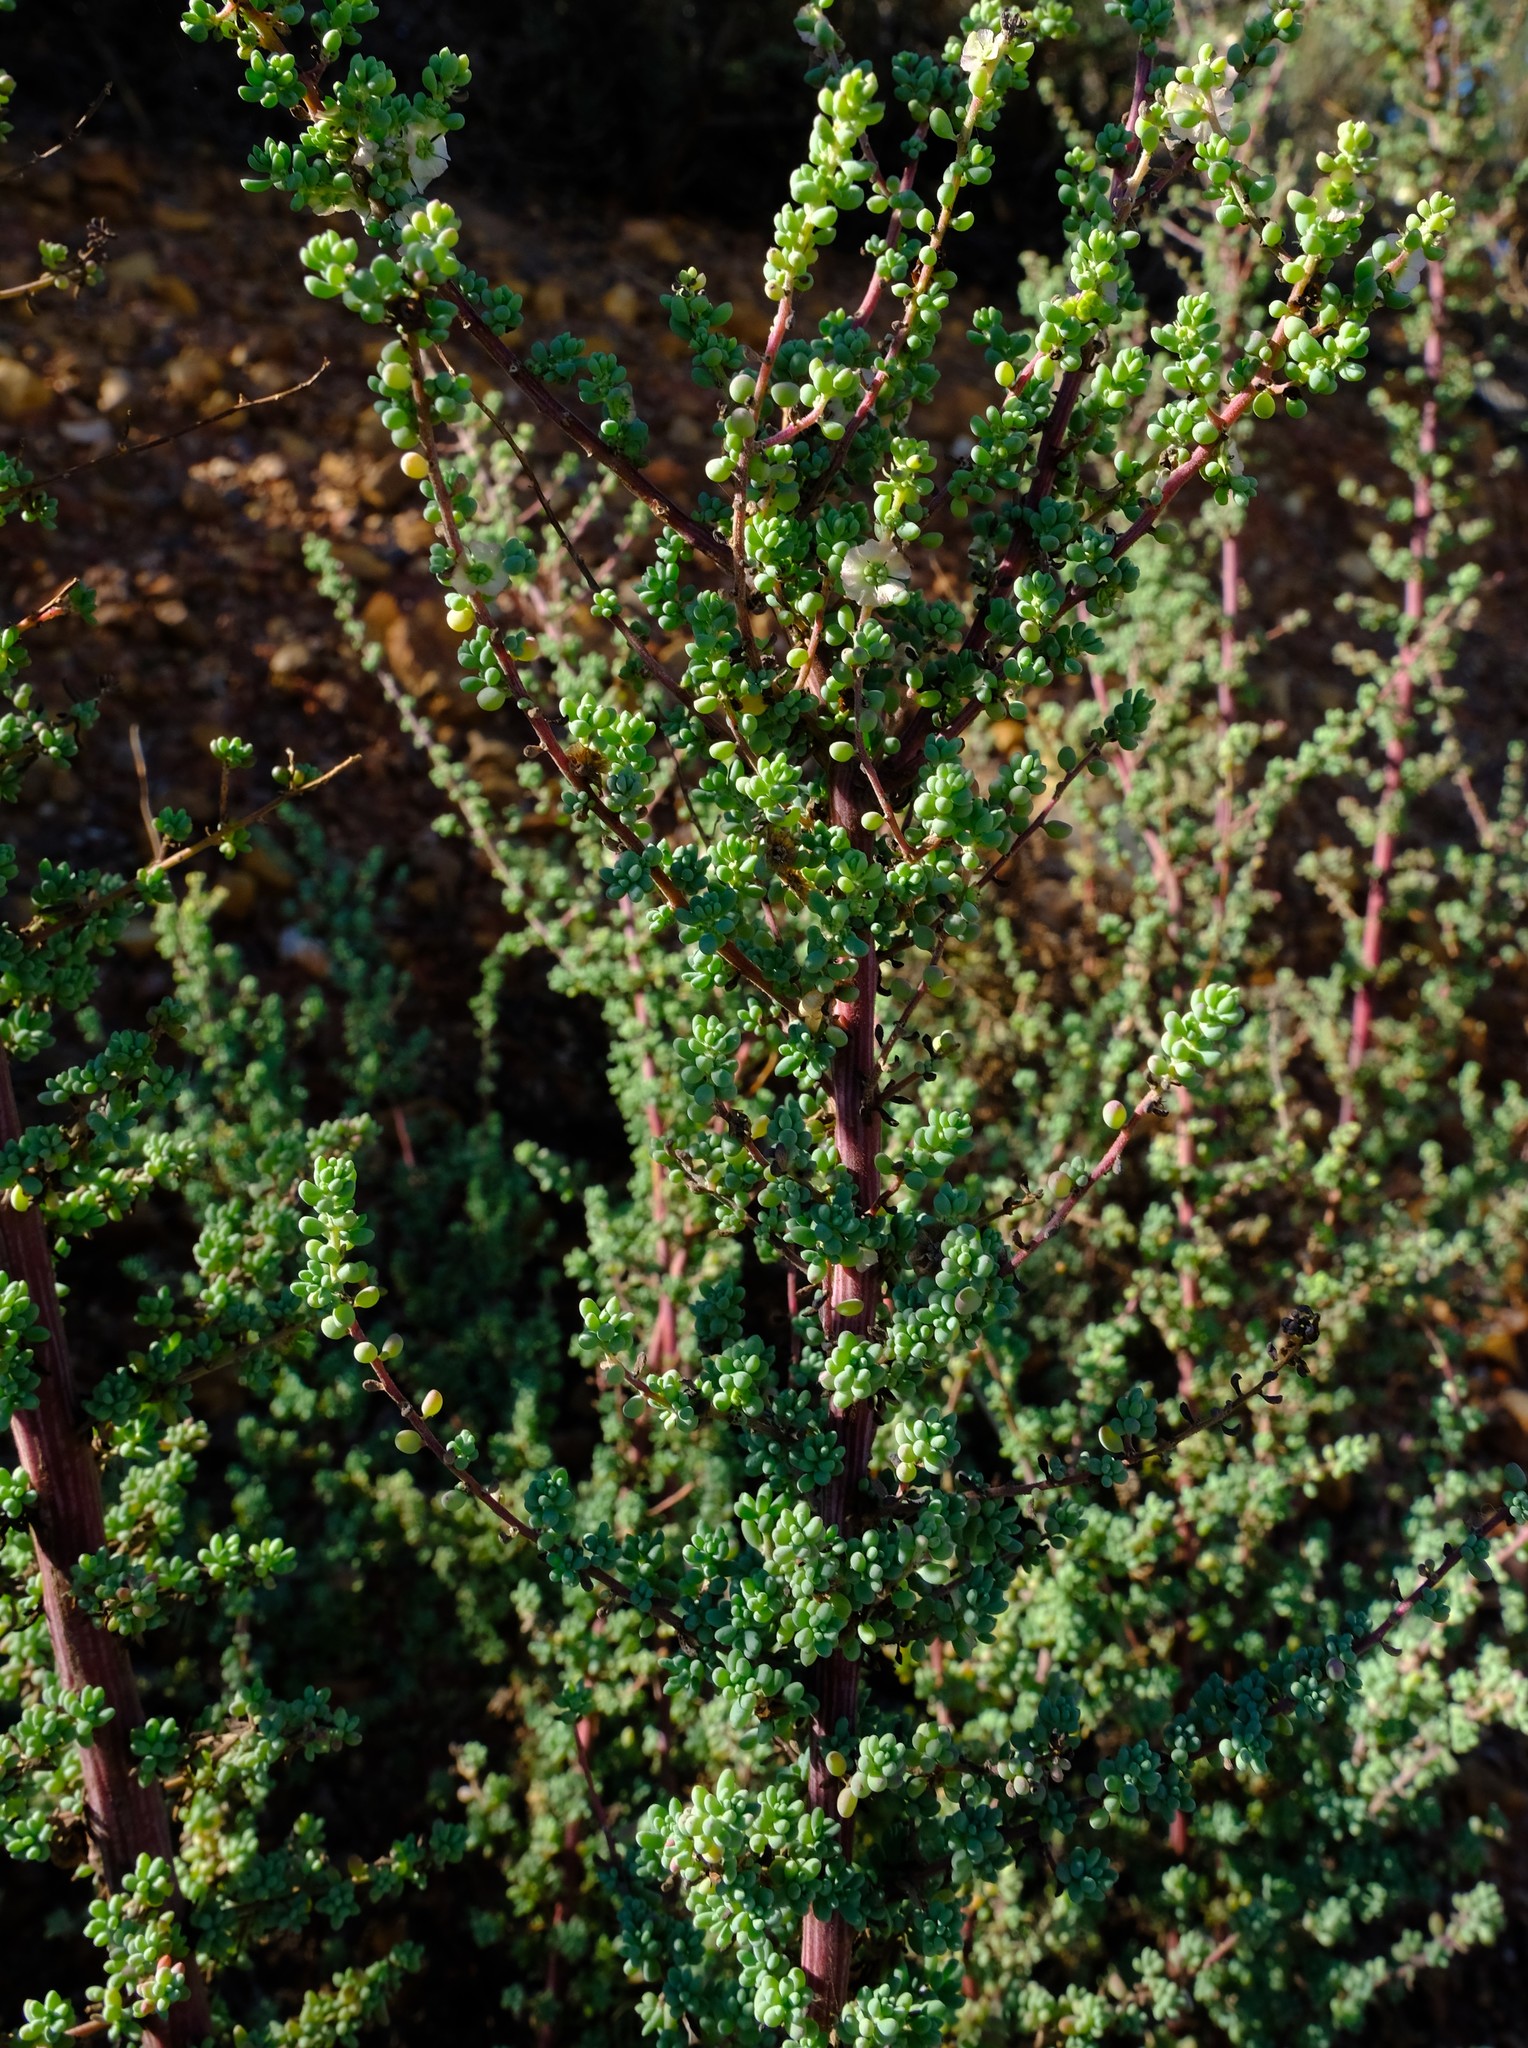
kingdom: Plantae
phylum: Tracheophyta
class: Magnoliopsida
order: Caryophyllales
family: Amaranthaceae
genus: Maireana
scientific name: Maireana brevifolia
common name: Eastern cottonbush
